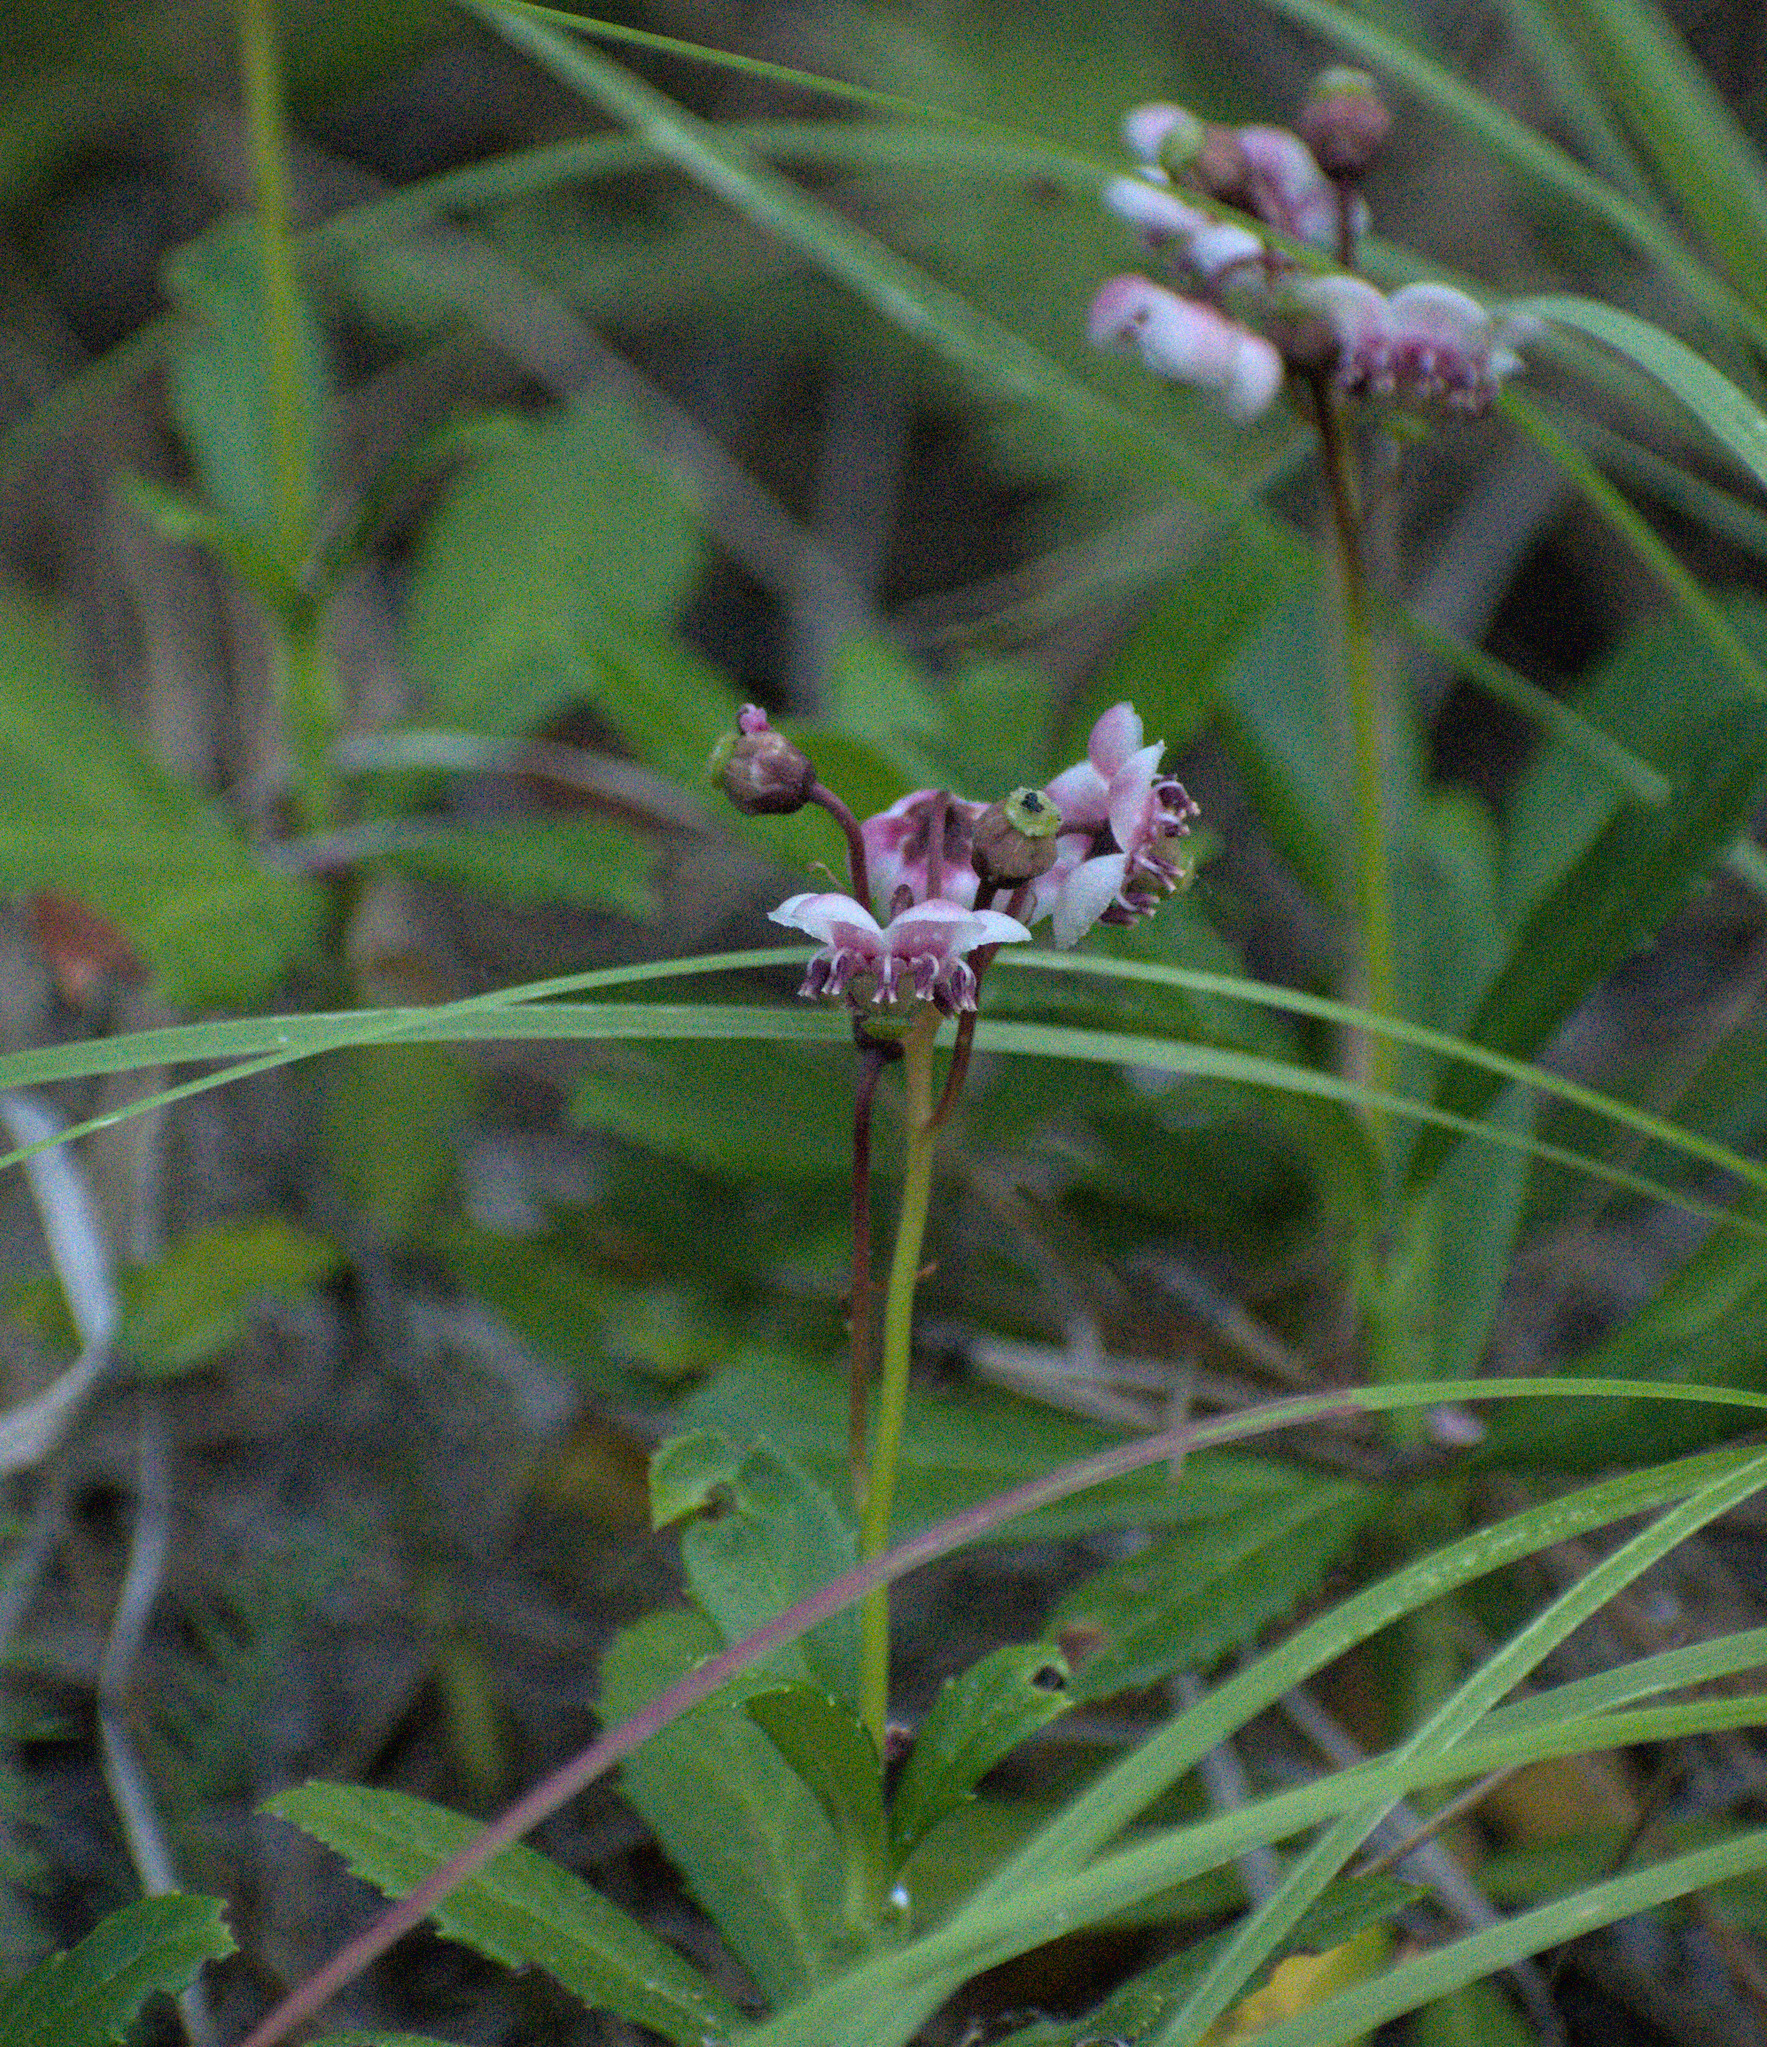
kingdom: Plantae
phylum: Tracheophyta
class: Magnoliopsida
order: Ericales
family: Ericaceae
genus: Chimaphila
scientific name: Chimaphila umbellata
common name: Pipsissewa
